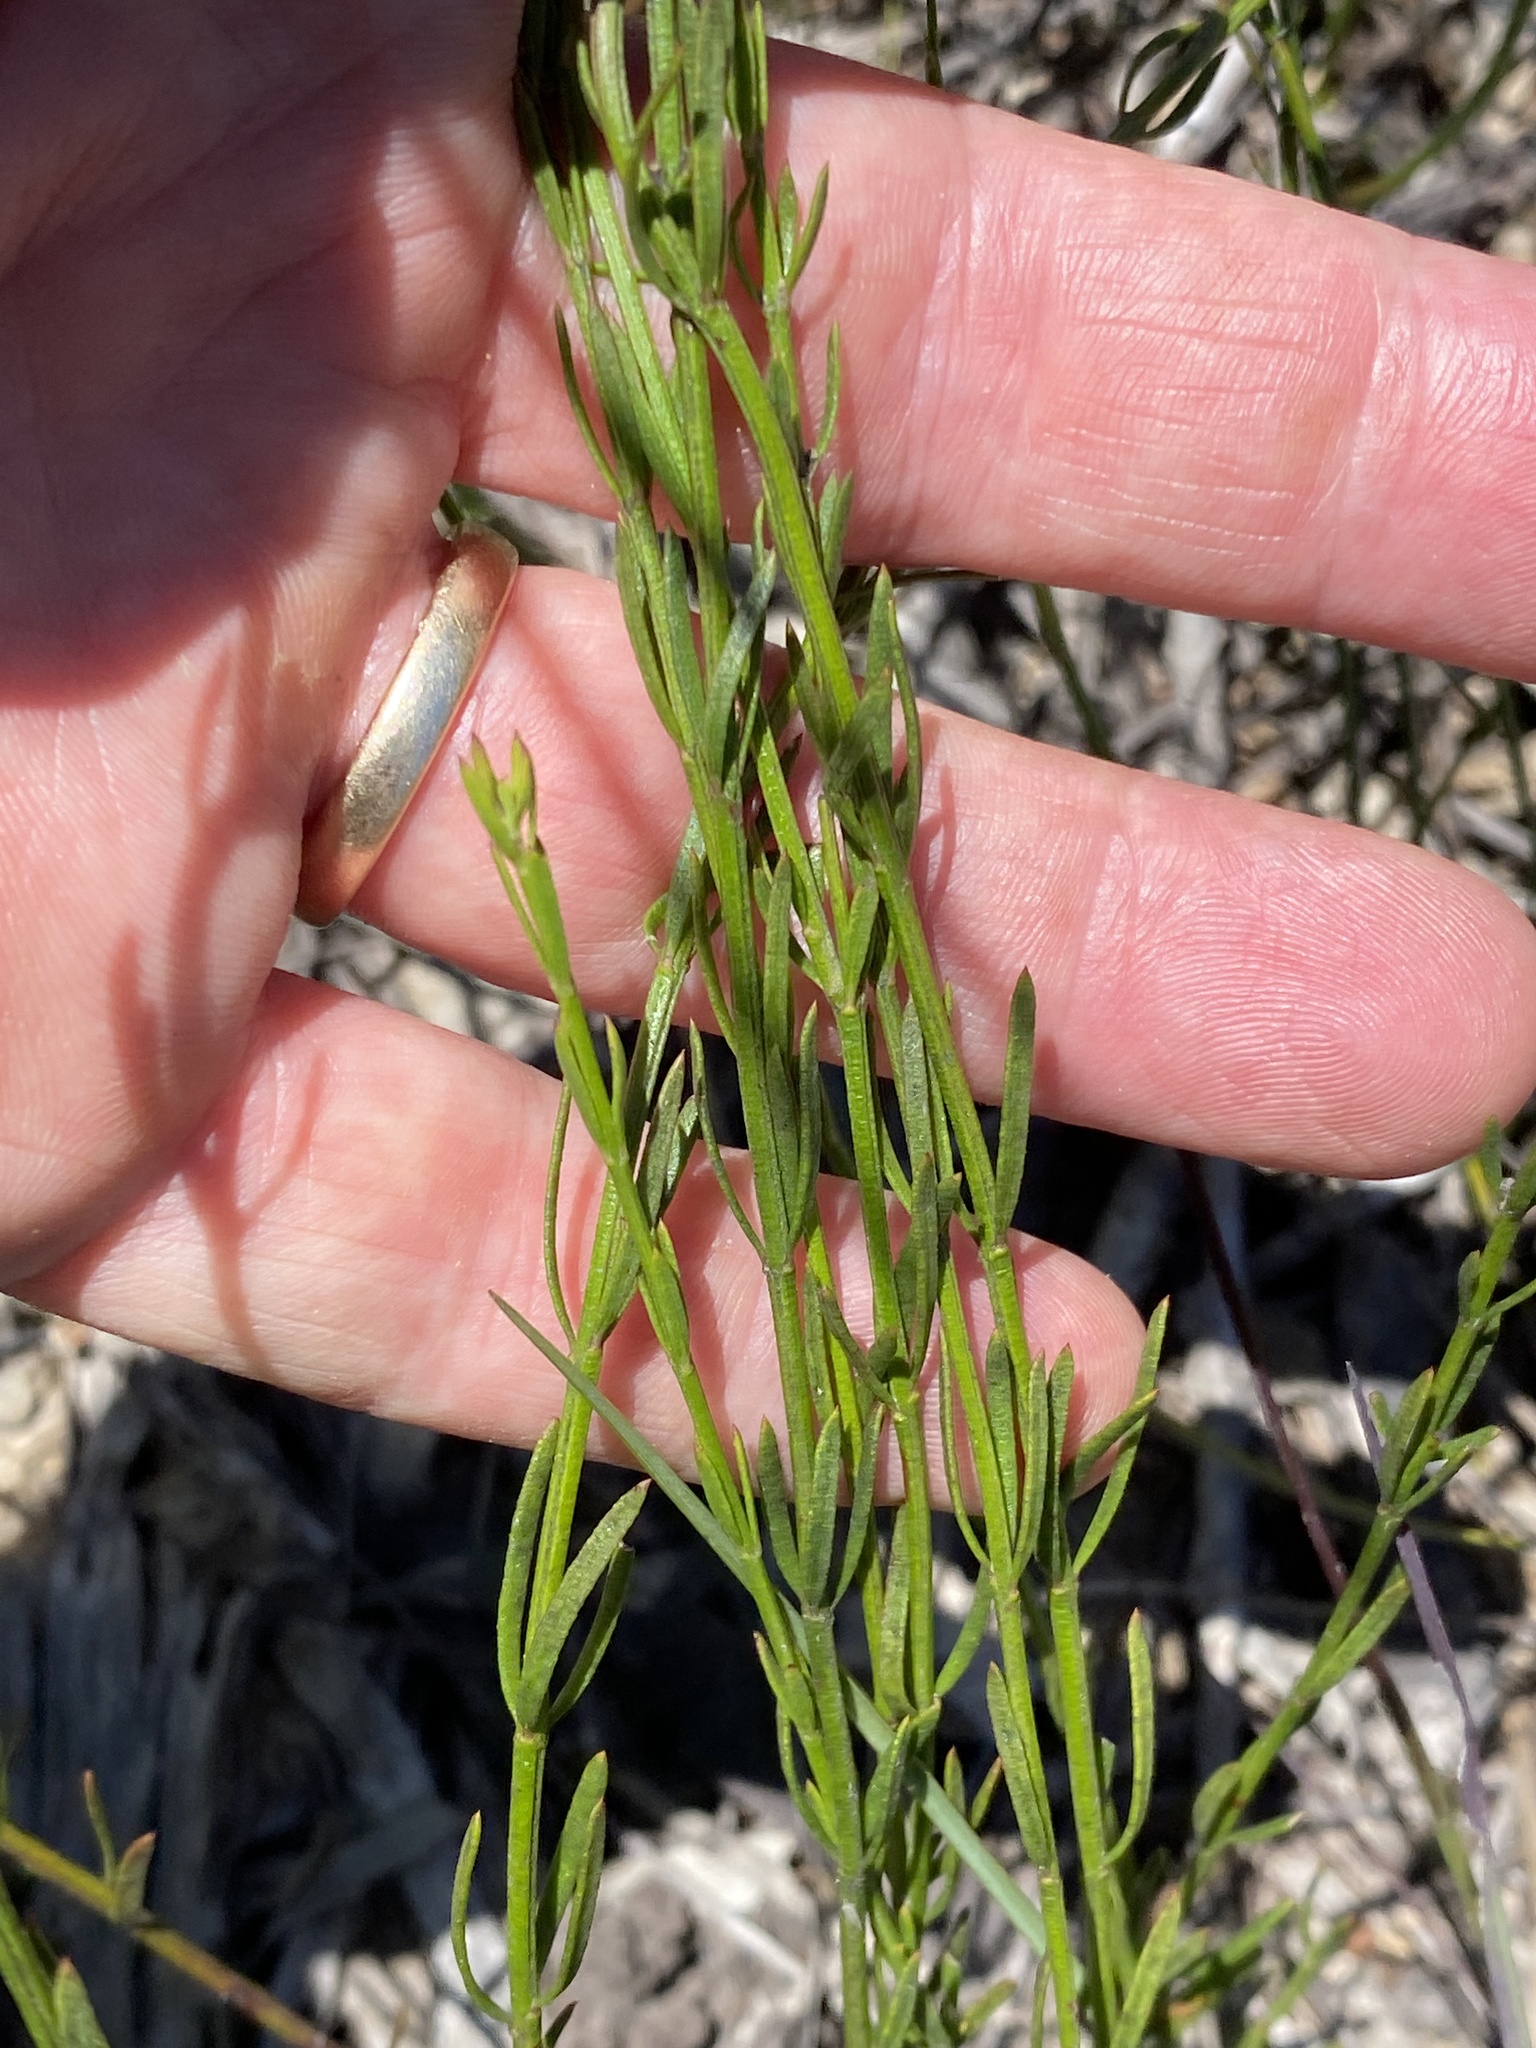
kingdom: Plantae
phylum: Tracheophyta
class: Magnoliopsida
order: Lamiales
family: Lamiaceae
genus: Westringia
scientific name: Westringia tenuicaulis
